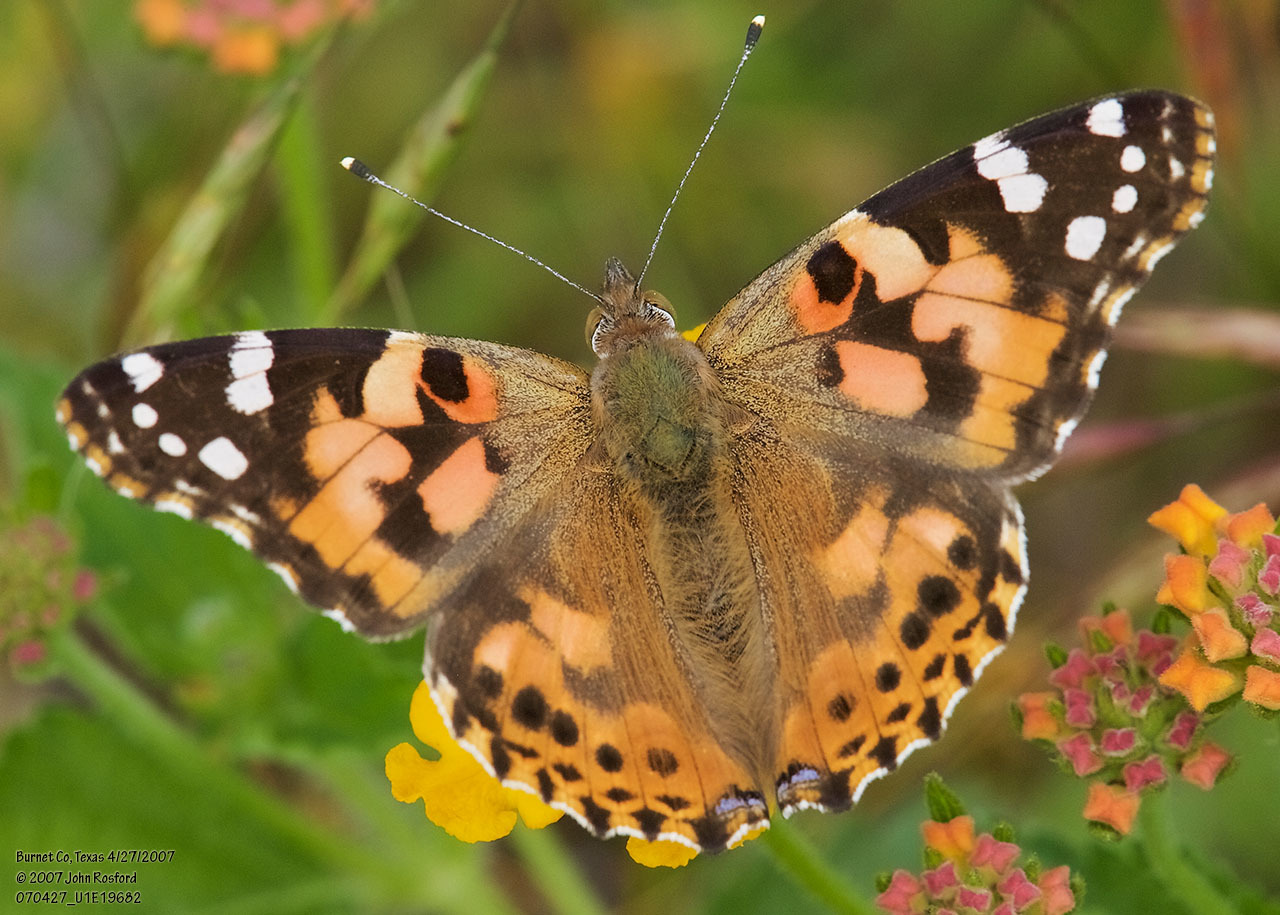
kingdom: Animalia
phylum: Arthropoda
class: Insecta
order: Lepidoptera
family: Nymphalidae
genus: Vanessa
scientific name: Vanessa cardui
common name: Painted lady
